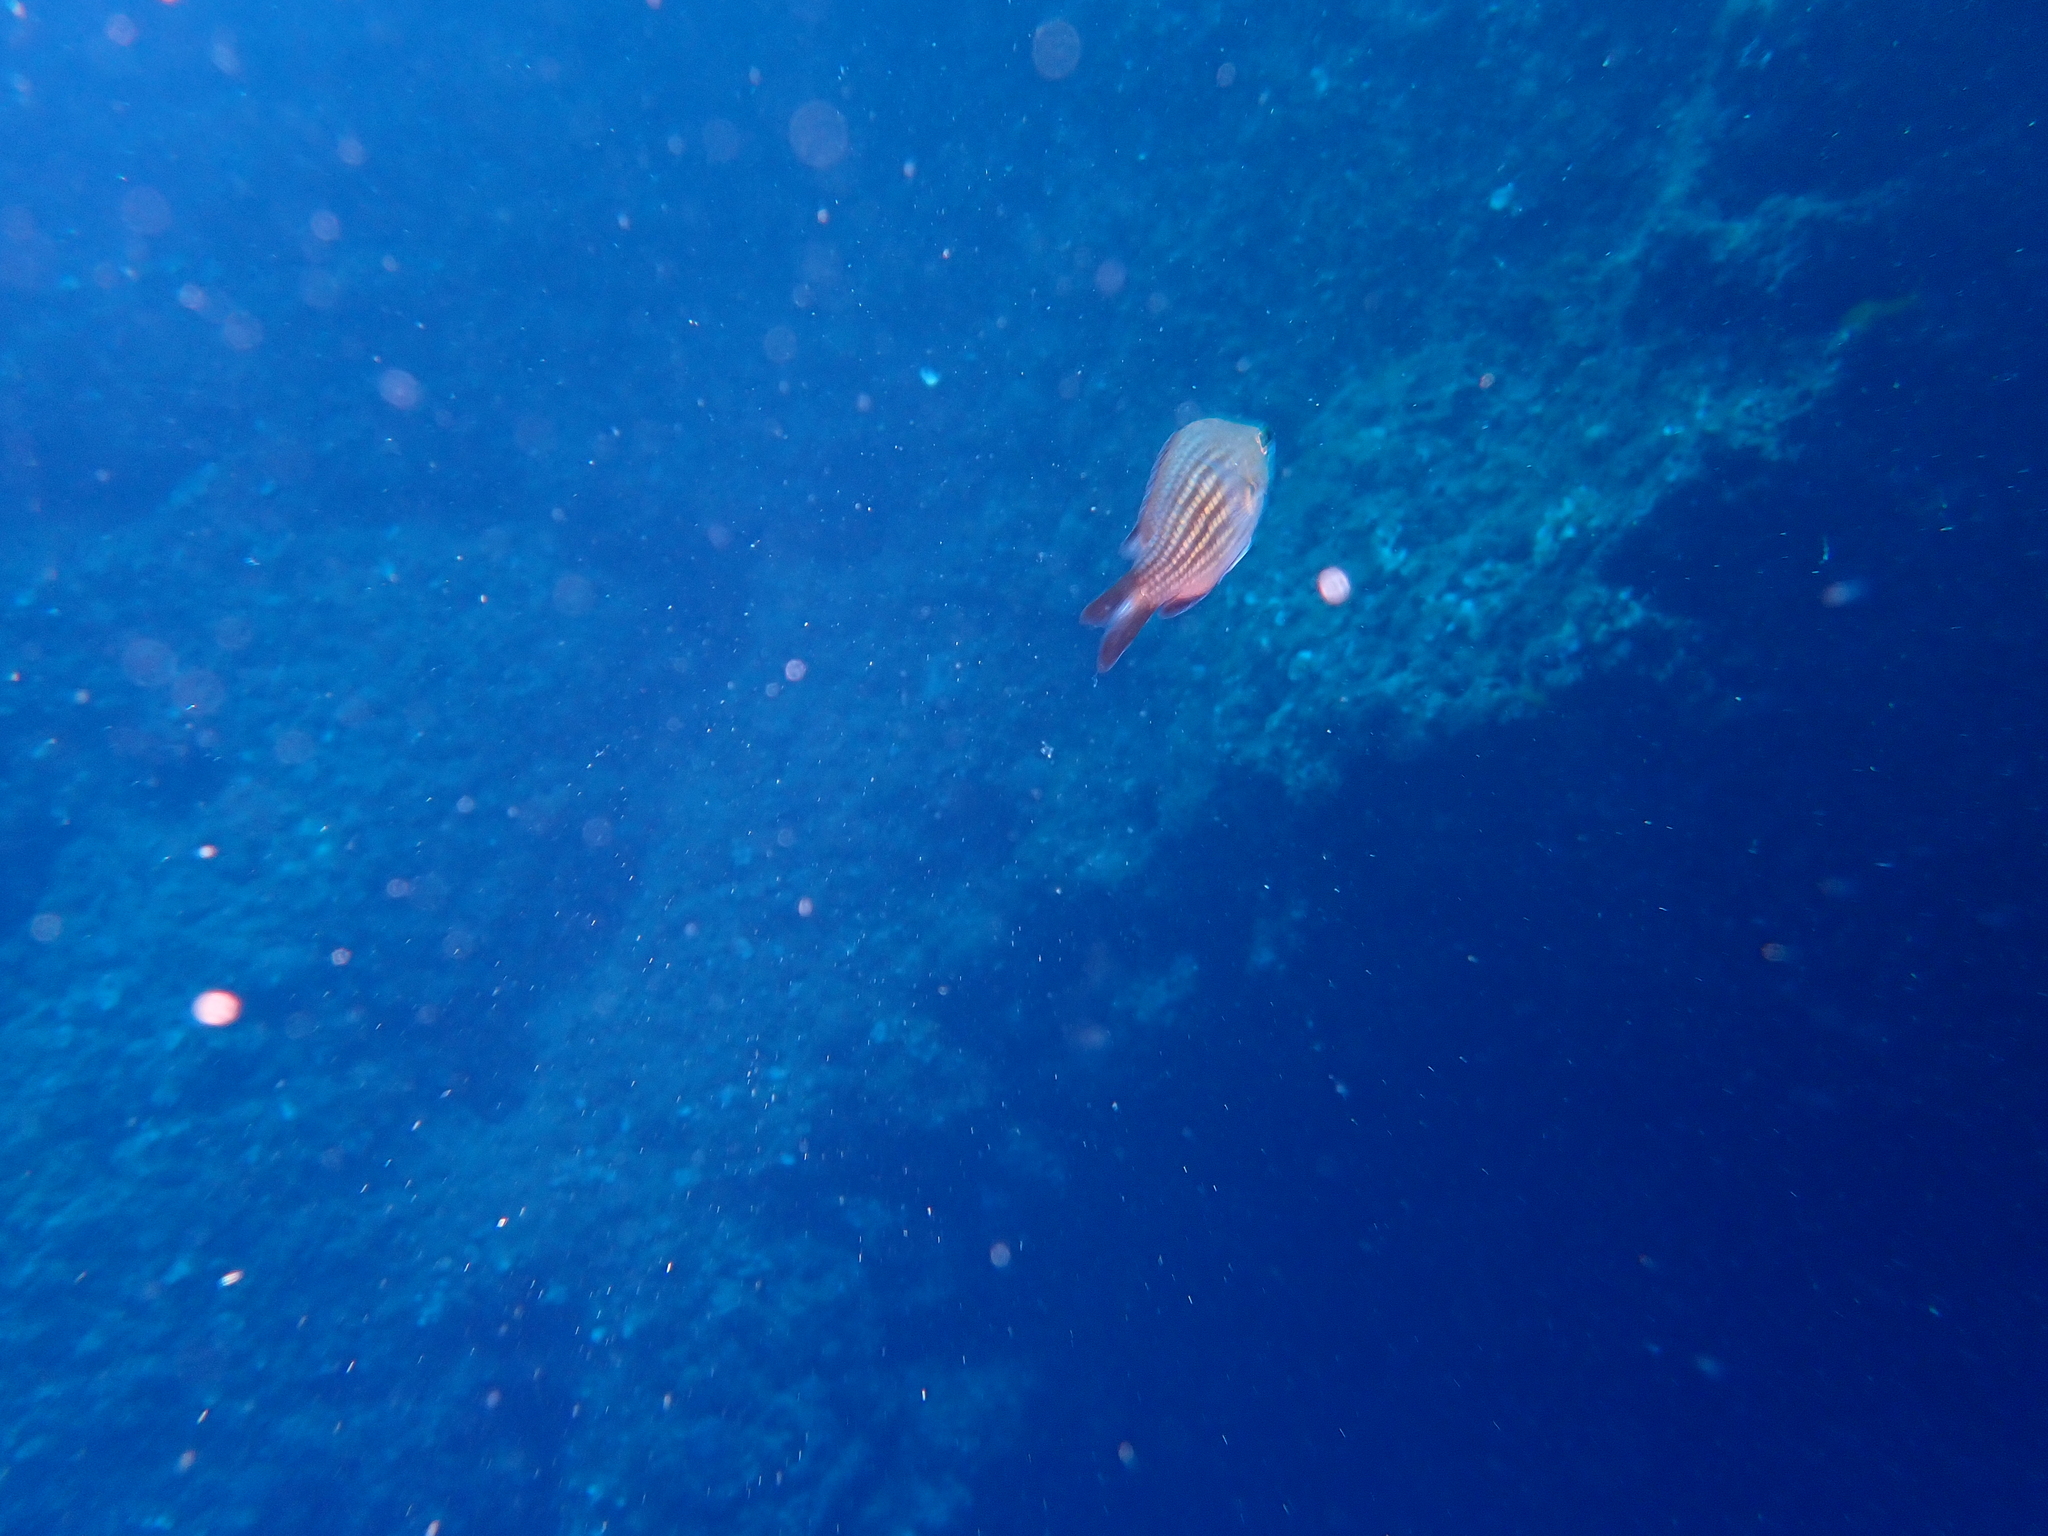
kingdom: Animalia
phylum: Chordata
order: Perciformes
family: Pomacentridae
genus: Chromis
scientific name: Chromis chromis
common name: Damselfish
